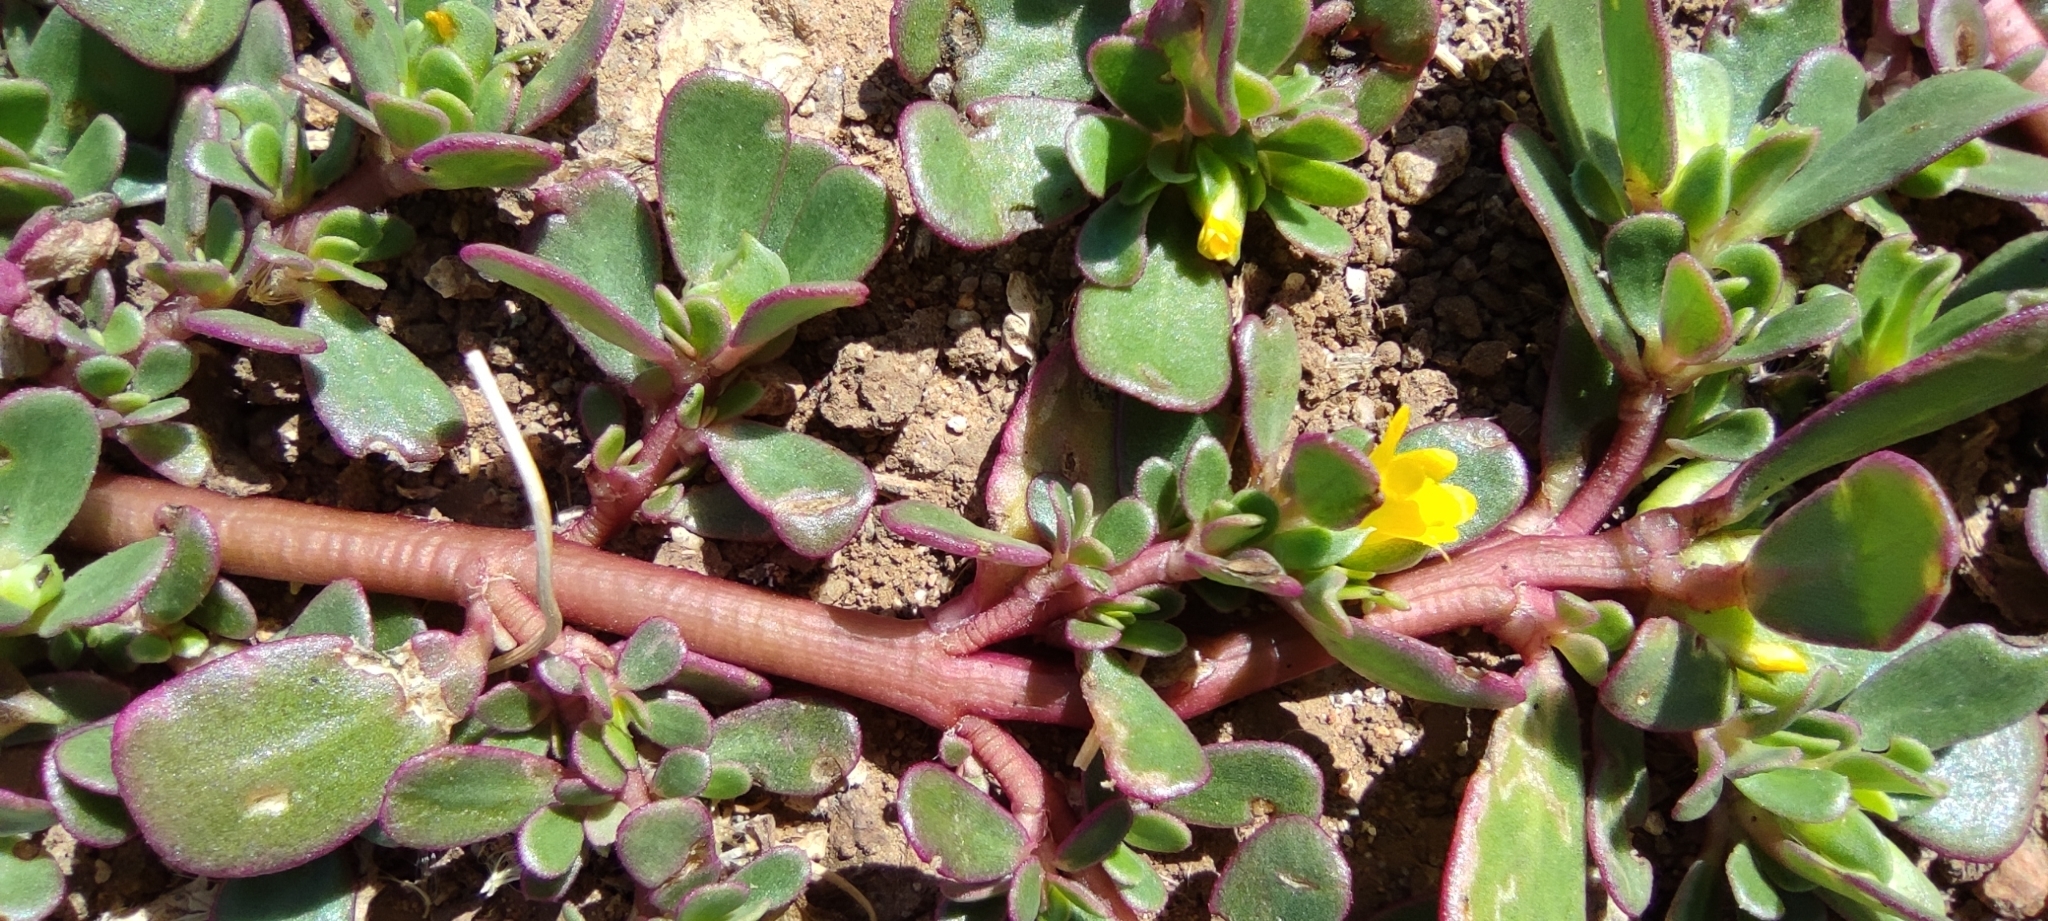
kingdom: Plantae
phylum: Tracheophyta
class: Magnoliopsida
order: Caryophyllales
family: Portulacaceae
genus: Portulaca
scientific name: Portulaca oleracea
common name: Common purslane
